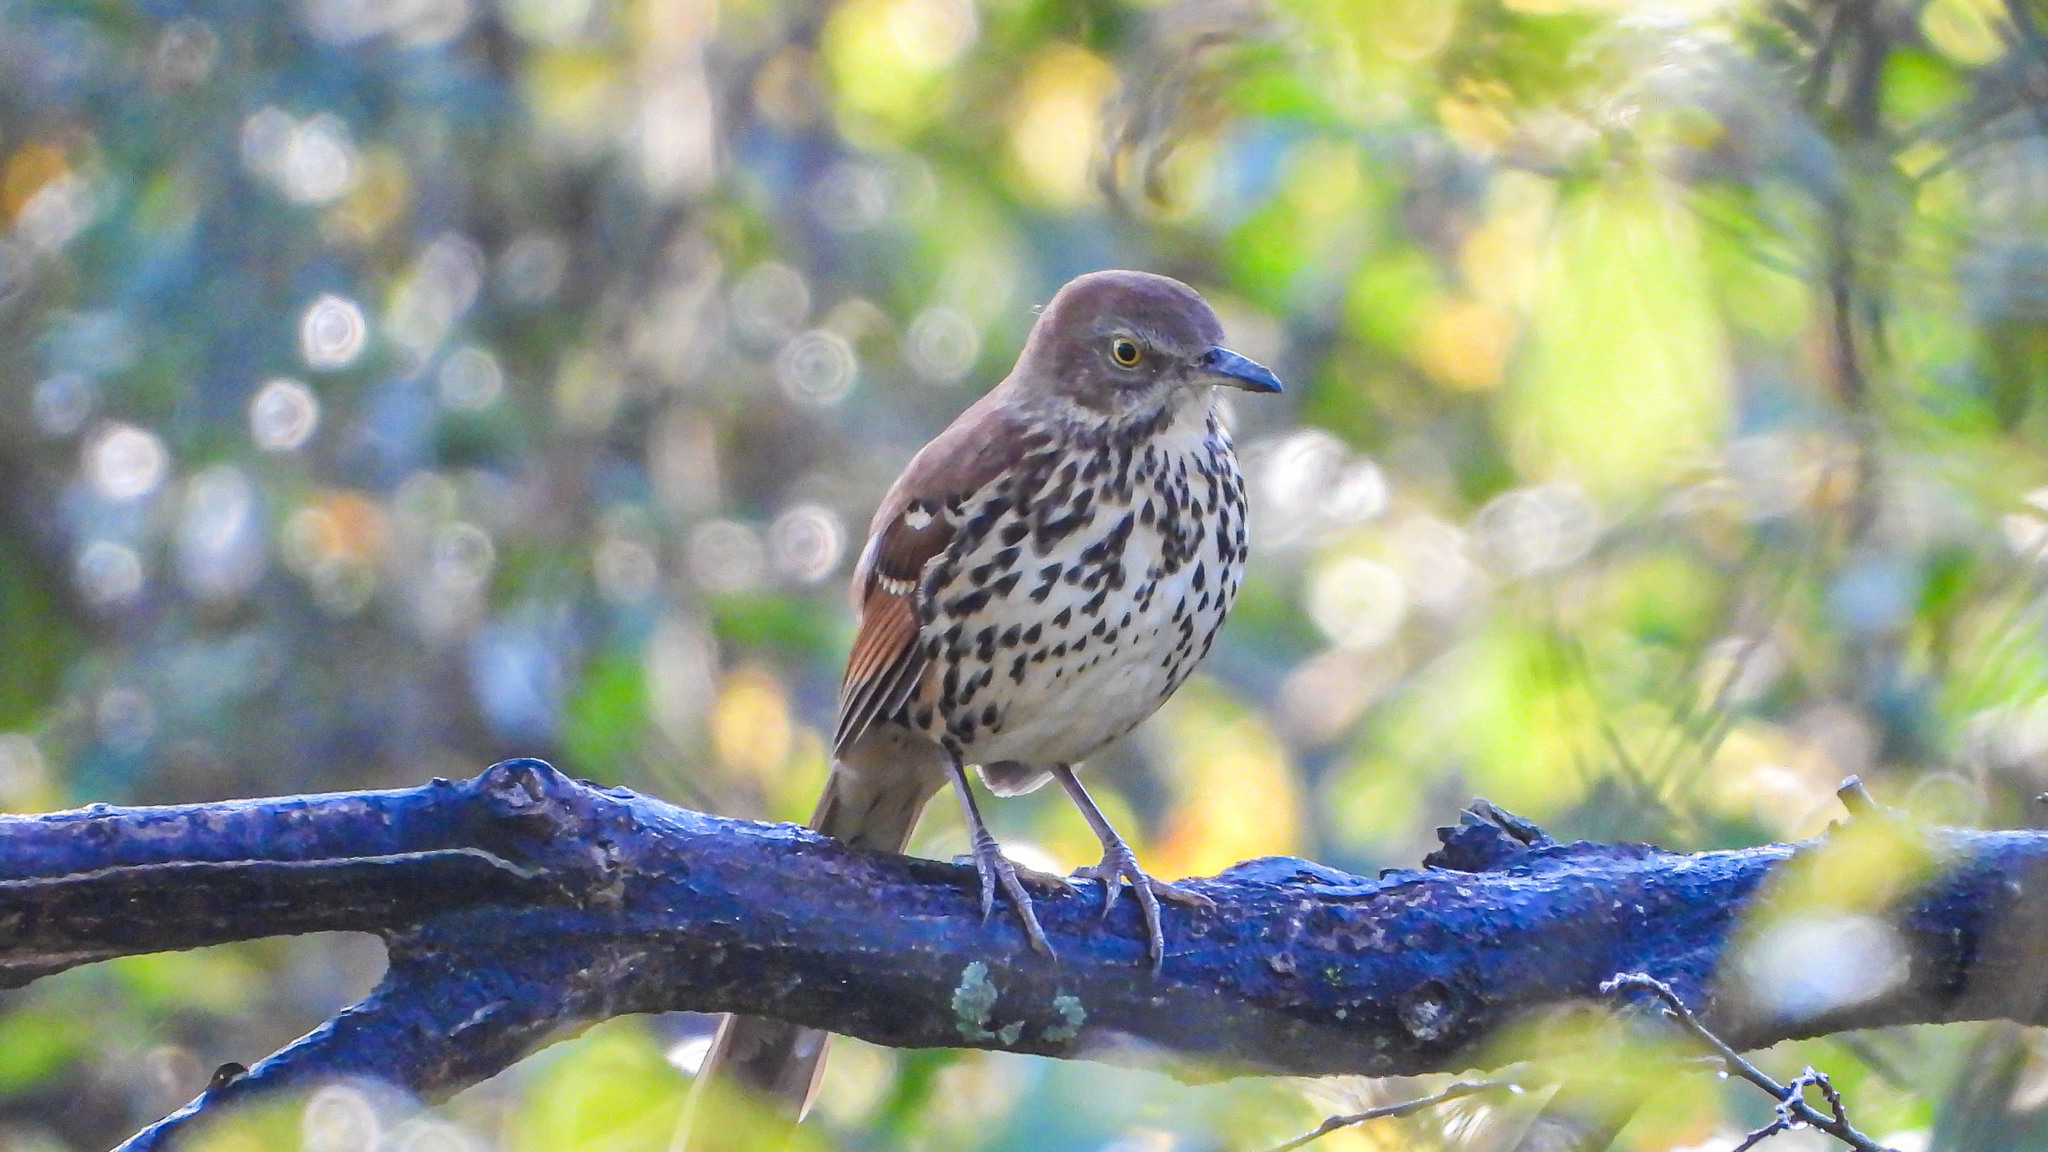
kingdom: Animalia
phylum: Chordata
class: Aves
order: Passeriformes
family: Mimidae
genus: Toxostoma
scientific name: Toxostoma rufum
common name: Brown thrasher
